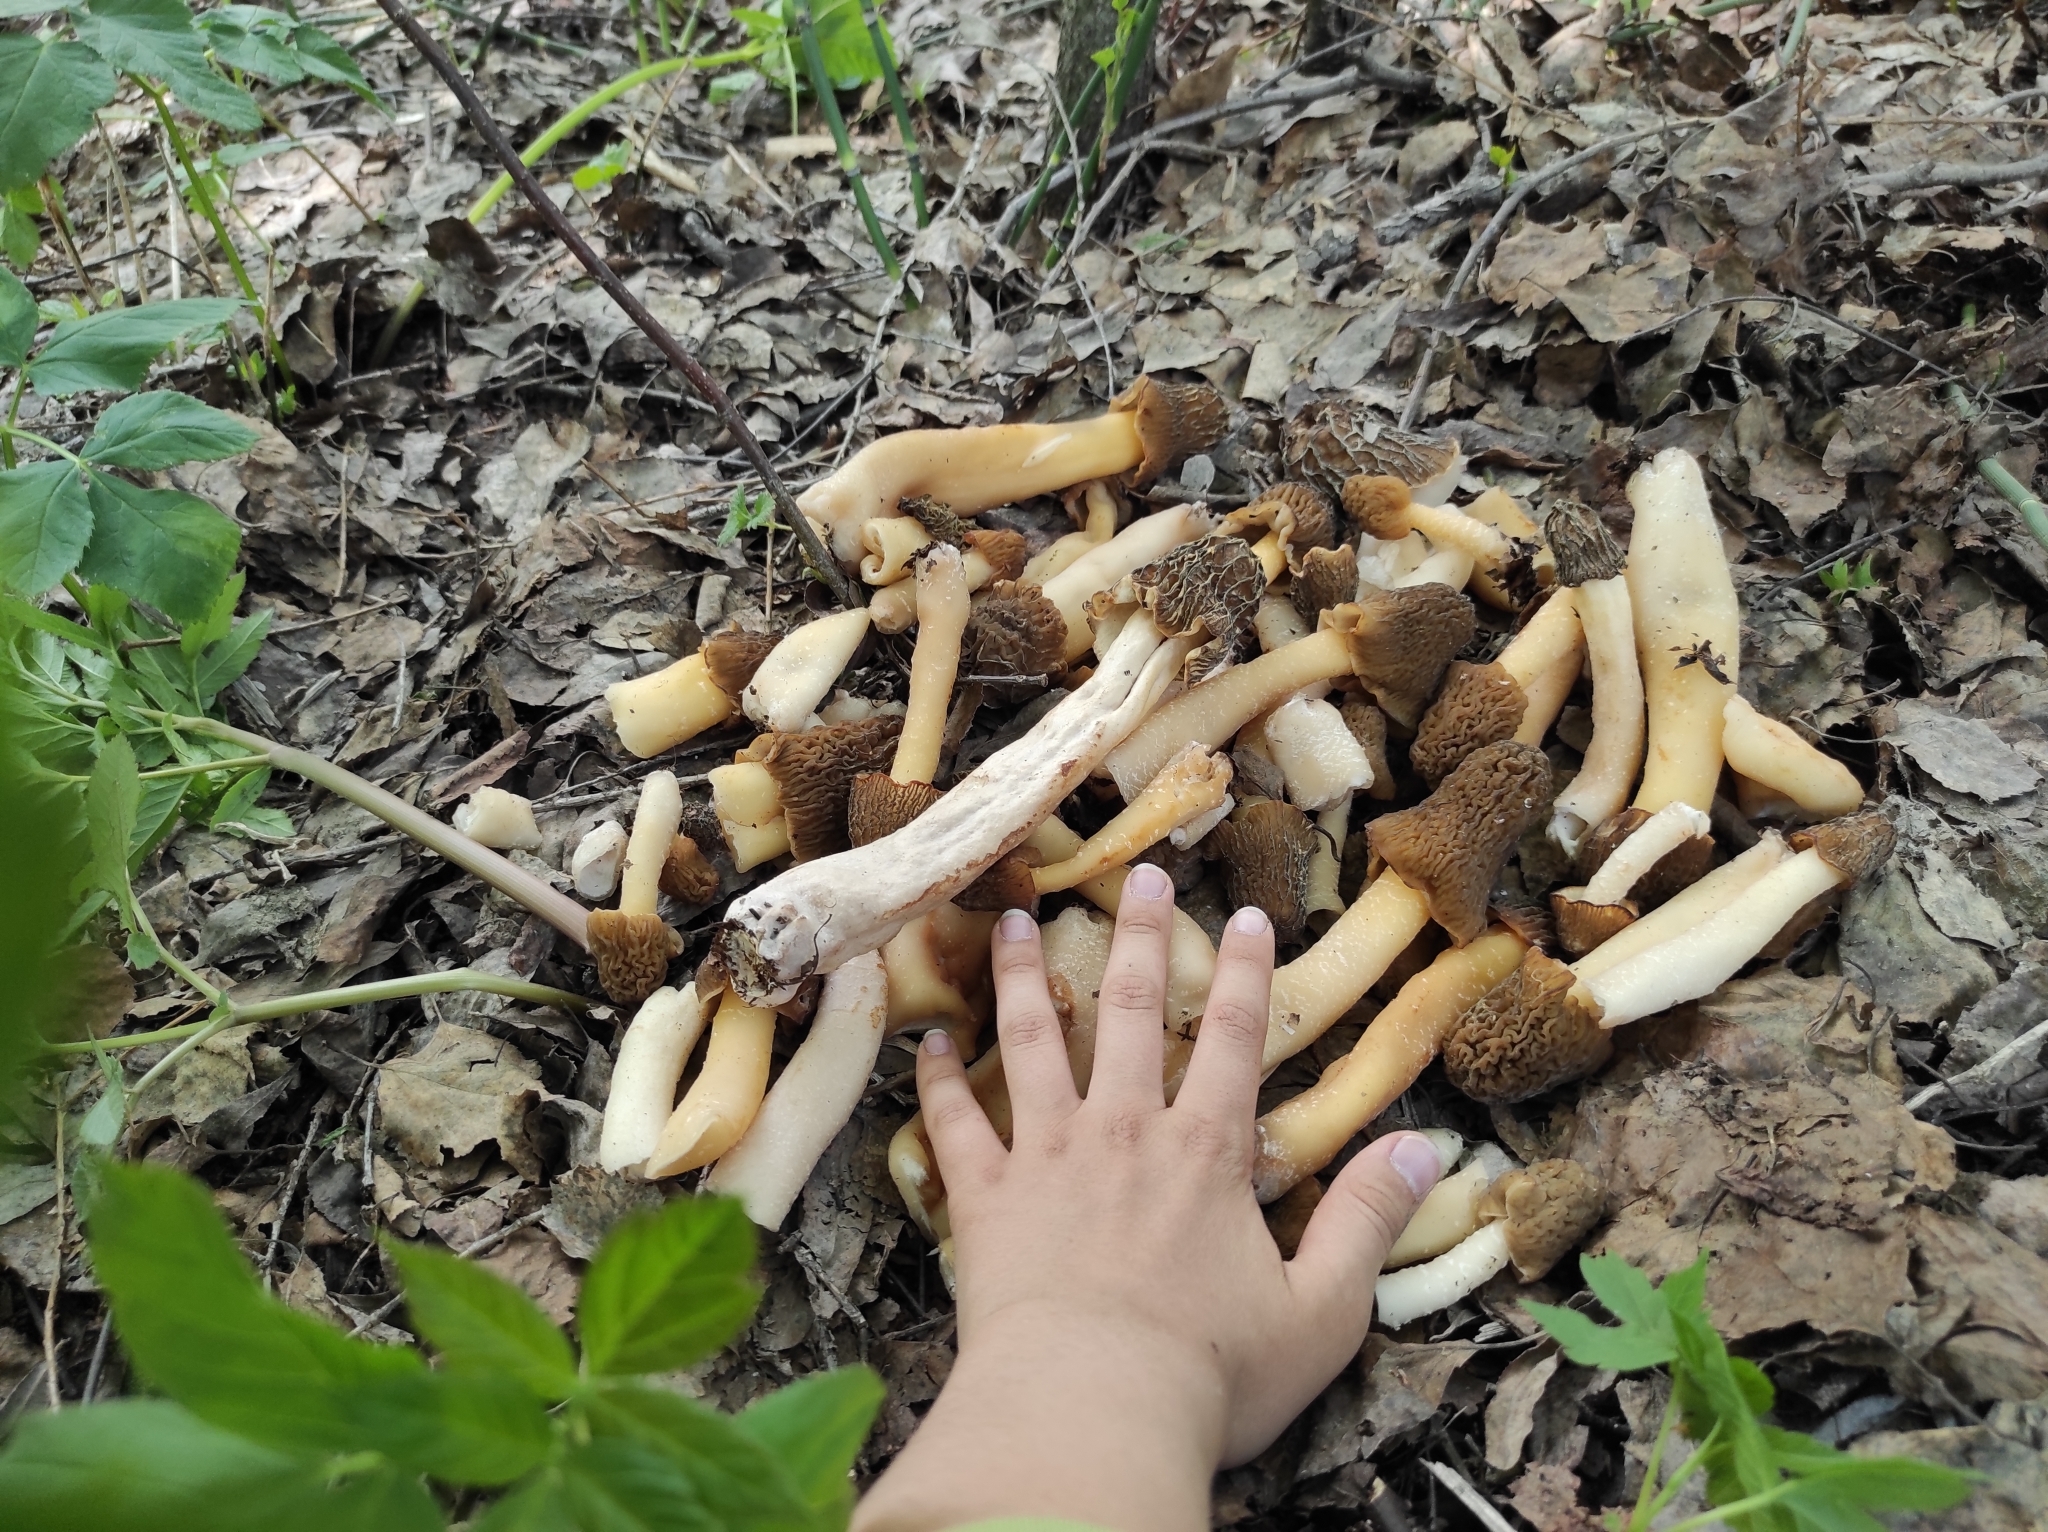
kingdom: Fungi
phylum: Ascomycota
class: Pezizomycetes
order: Pezizales
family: Morchellaceae
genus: Verpa
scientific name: Verpa bohemica
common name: Wrinkled thimble morel
